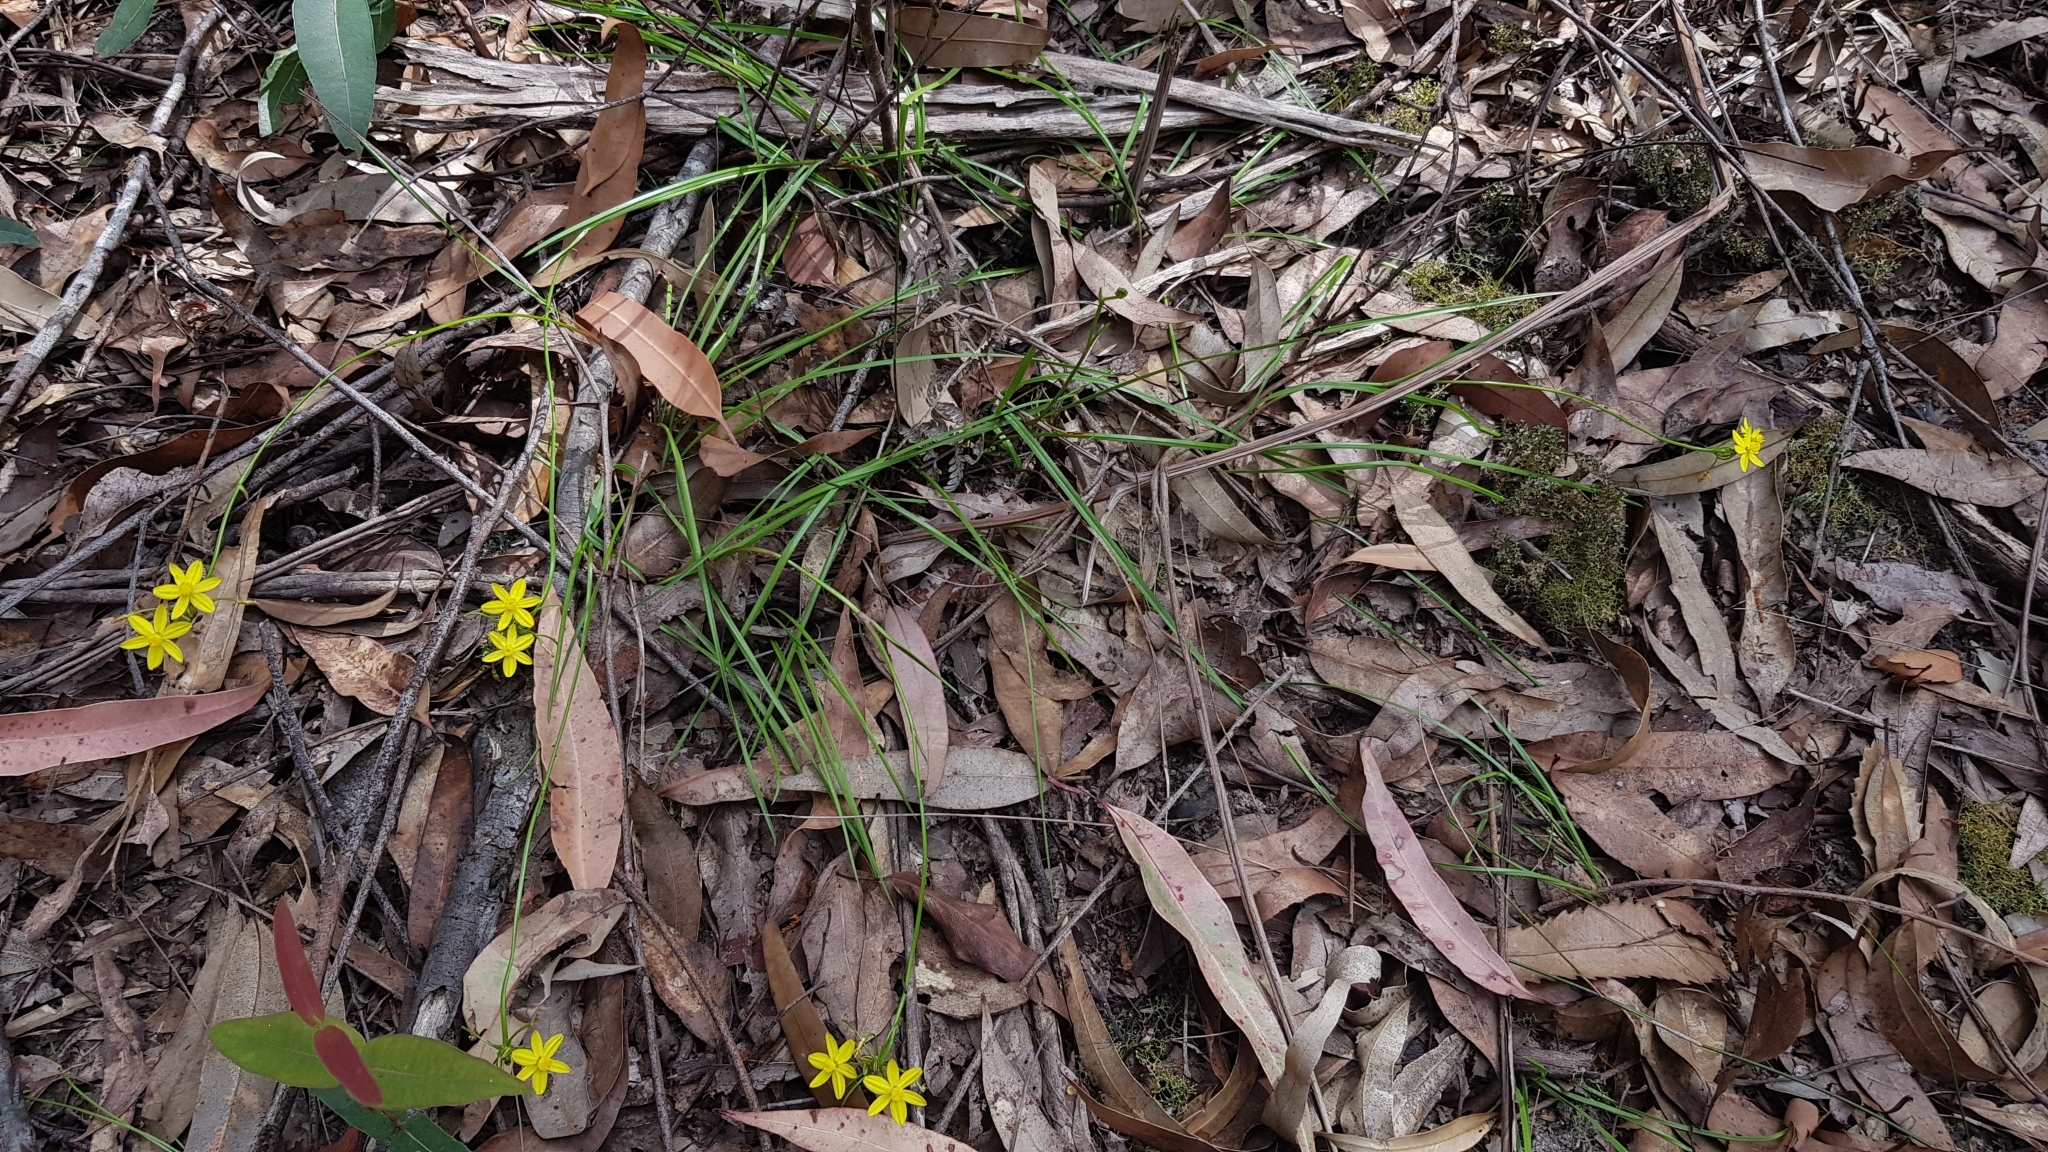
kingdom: Plantae
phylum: Tracheophyta
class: Liliopsida
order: Asparagales
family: Asphodelaceae
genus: Tricoryne
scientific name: Tricoryne simplex
